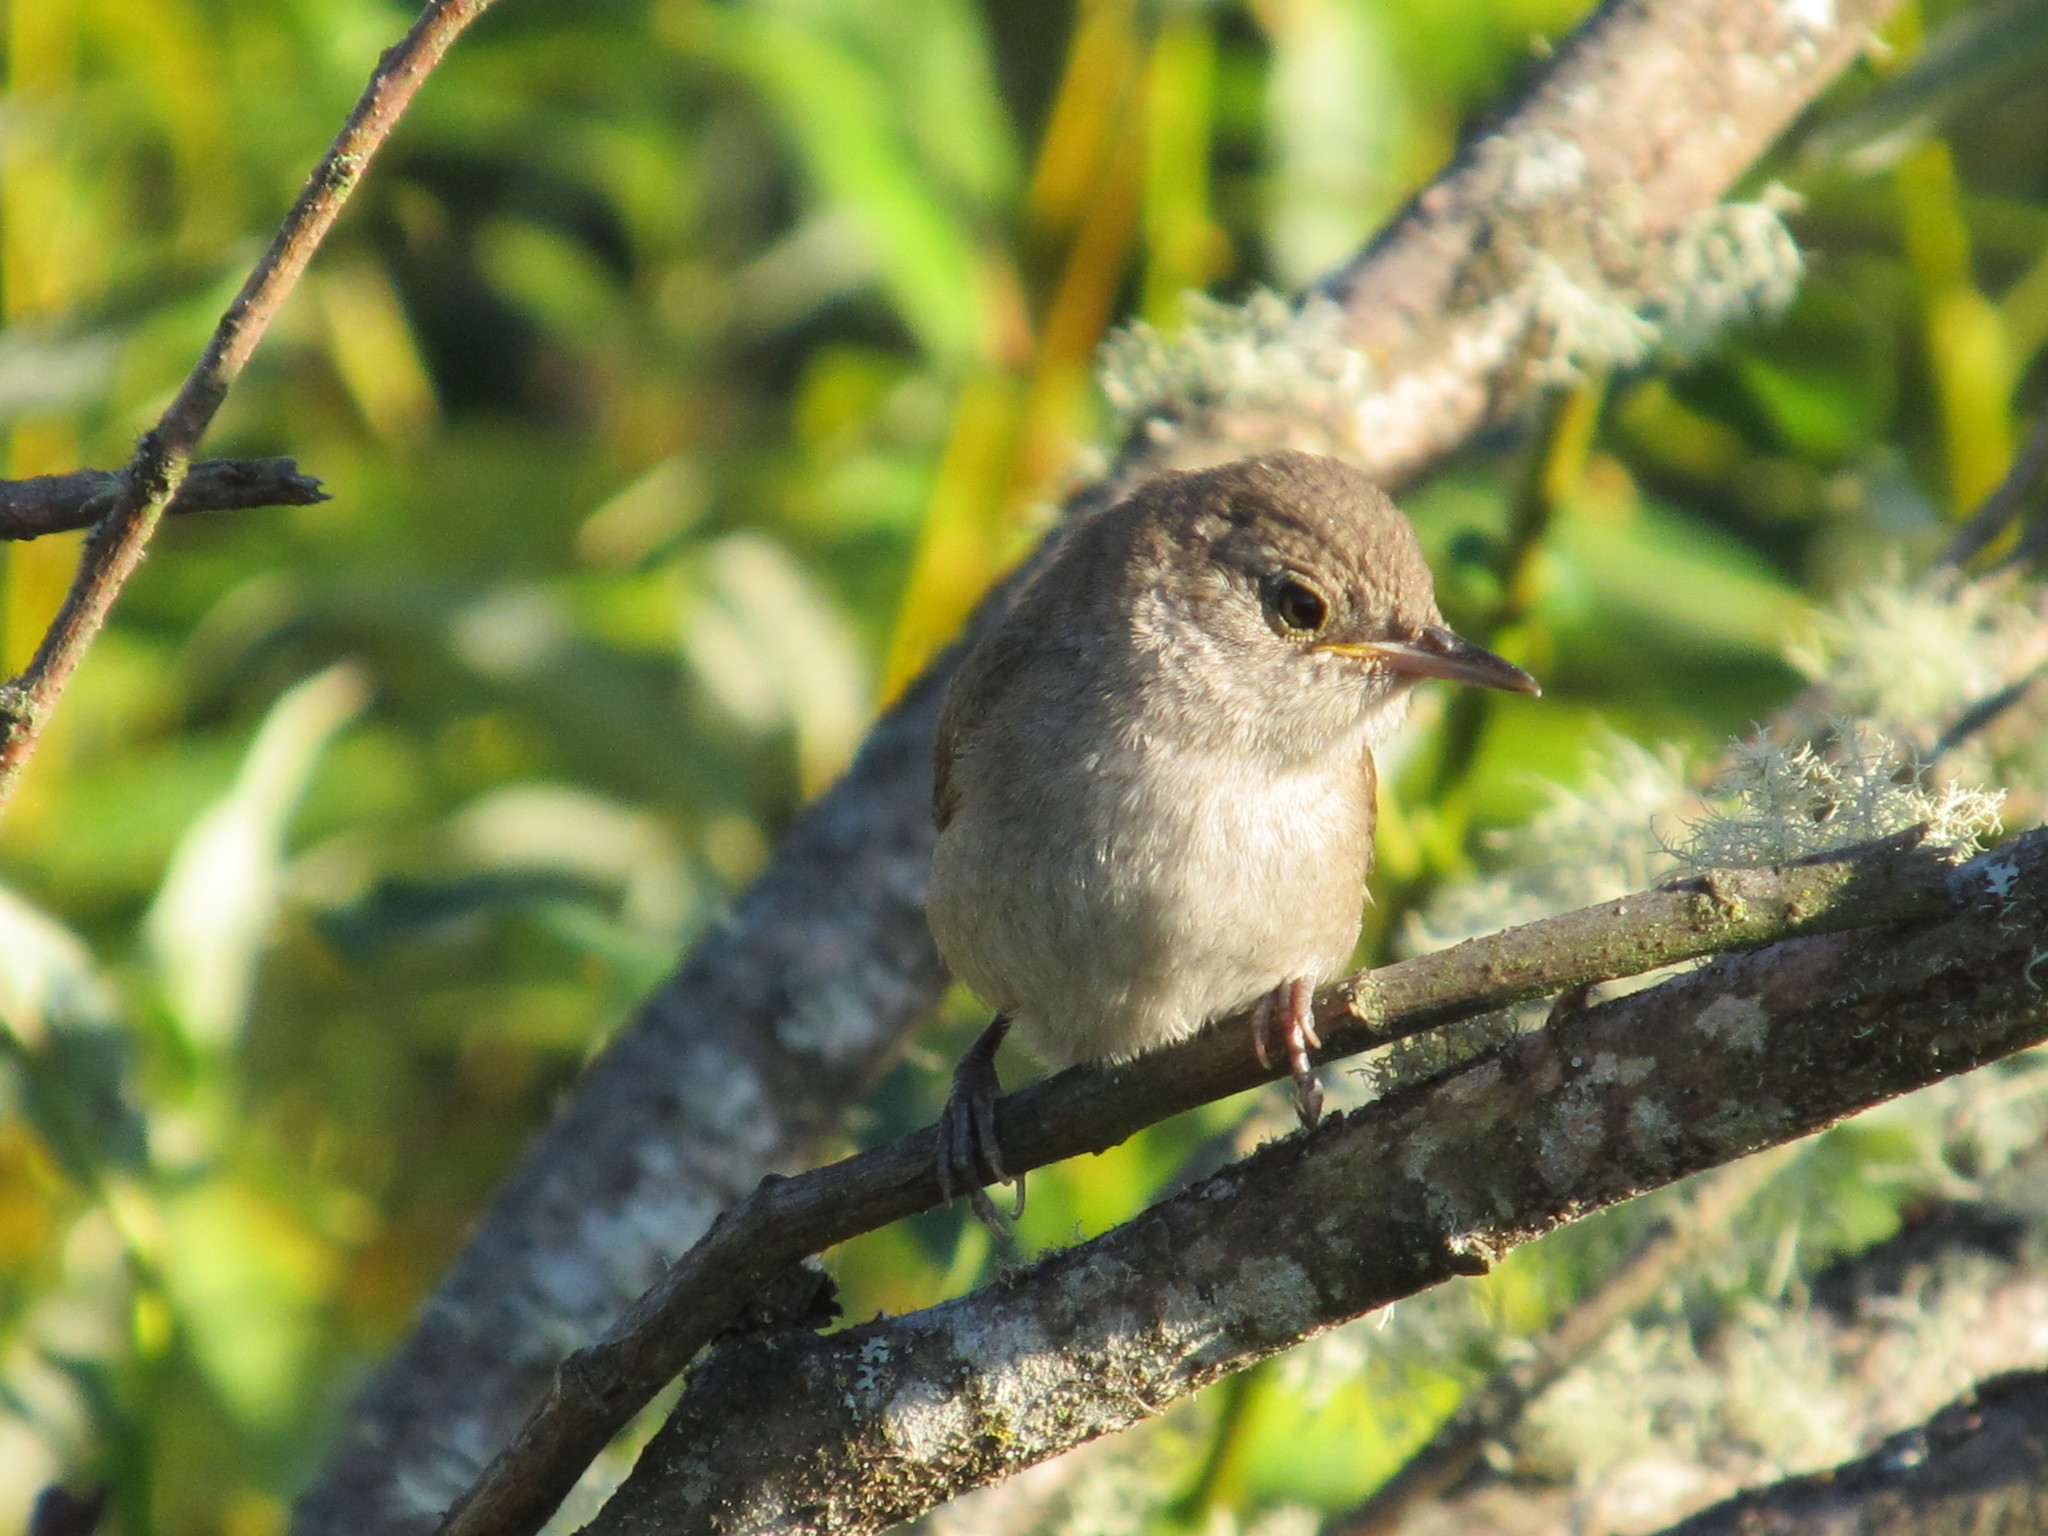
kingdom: Animalia
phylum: Chordata
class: Aves
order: Passeriformes
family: Troglodytidae
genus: Troglodytes
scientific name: Troglodytes aedon
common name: House wren
